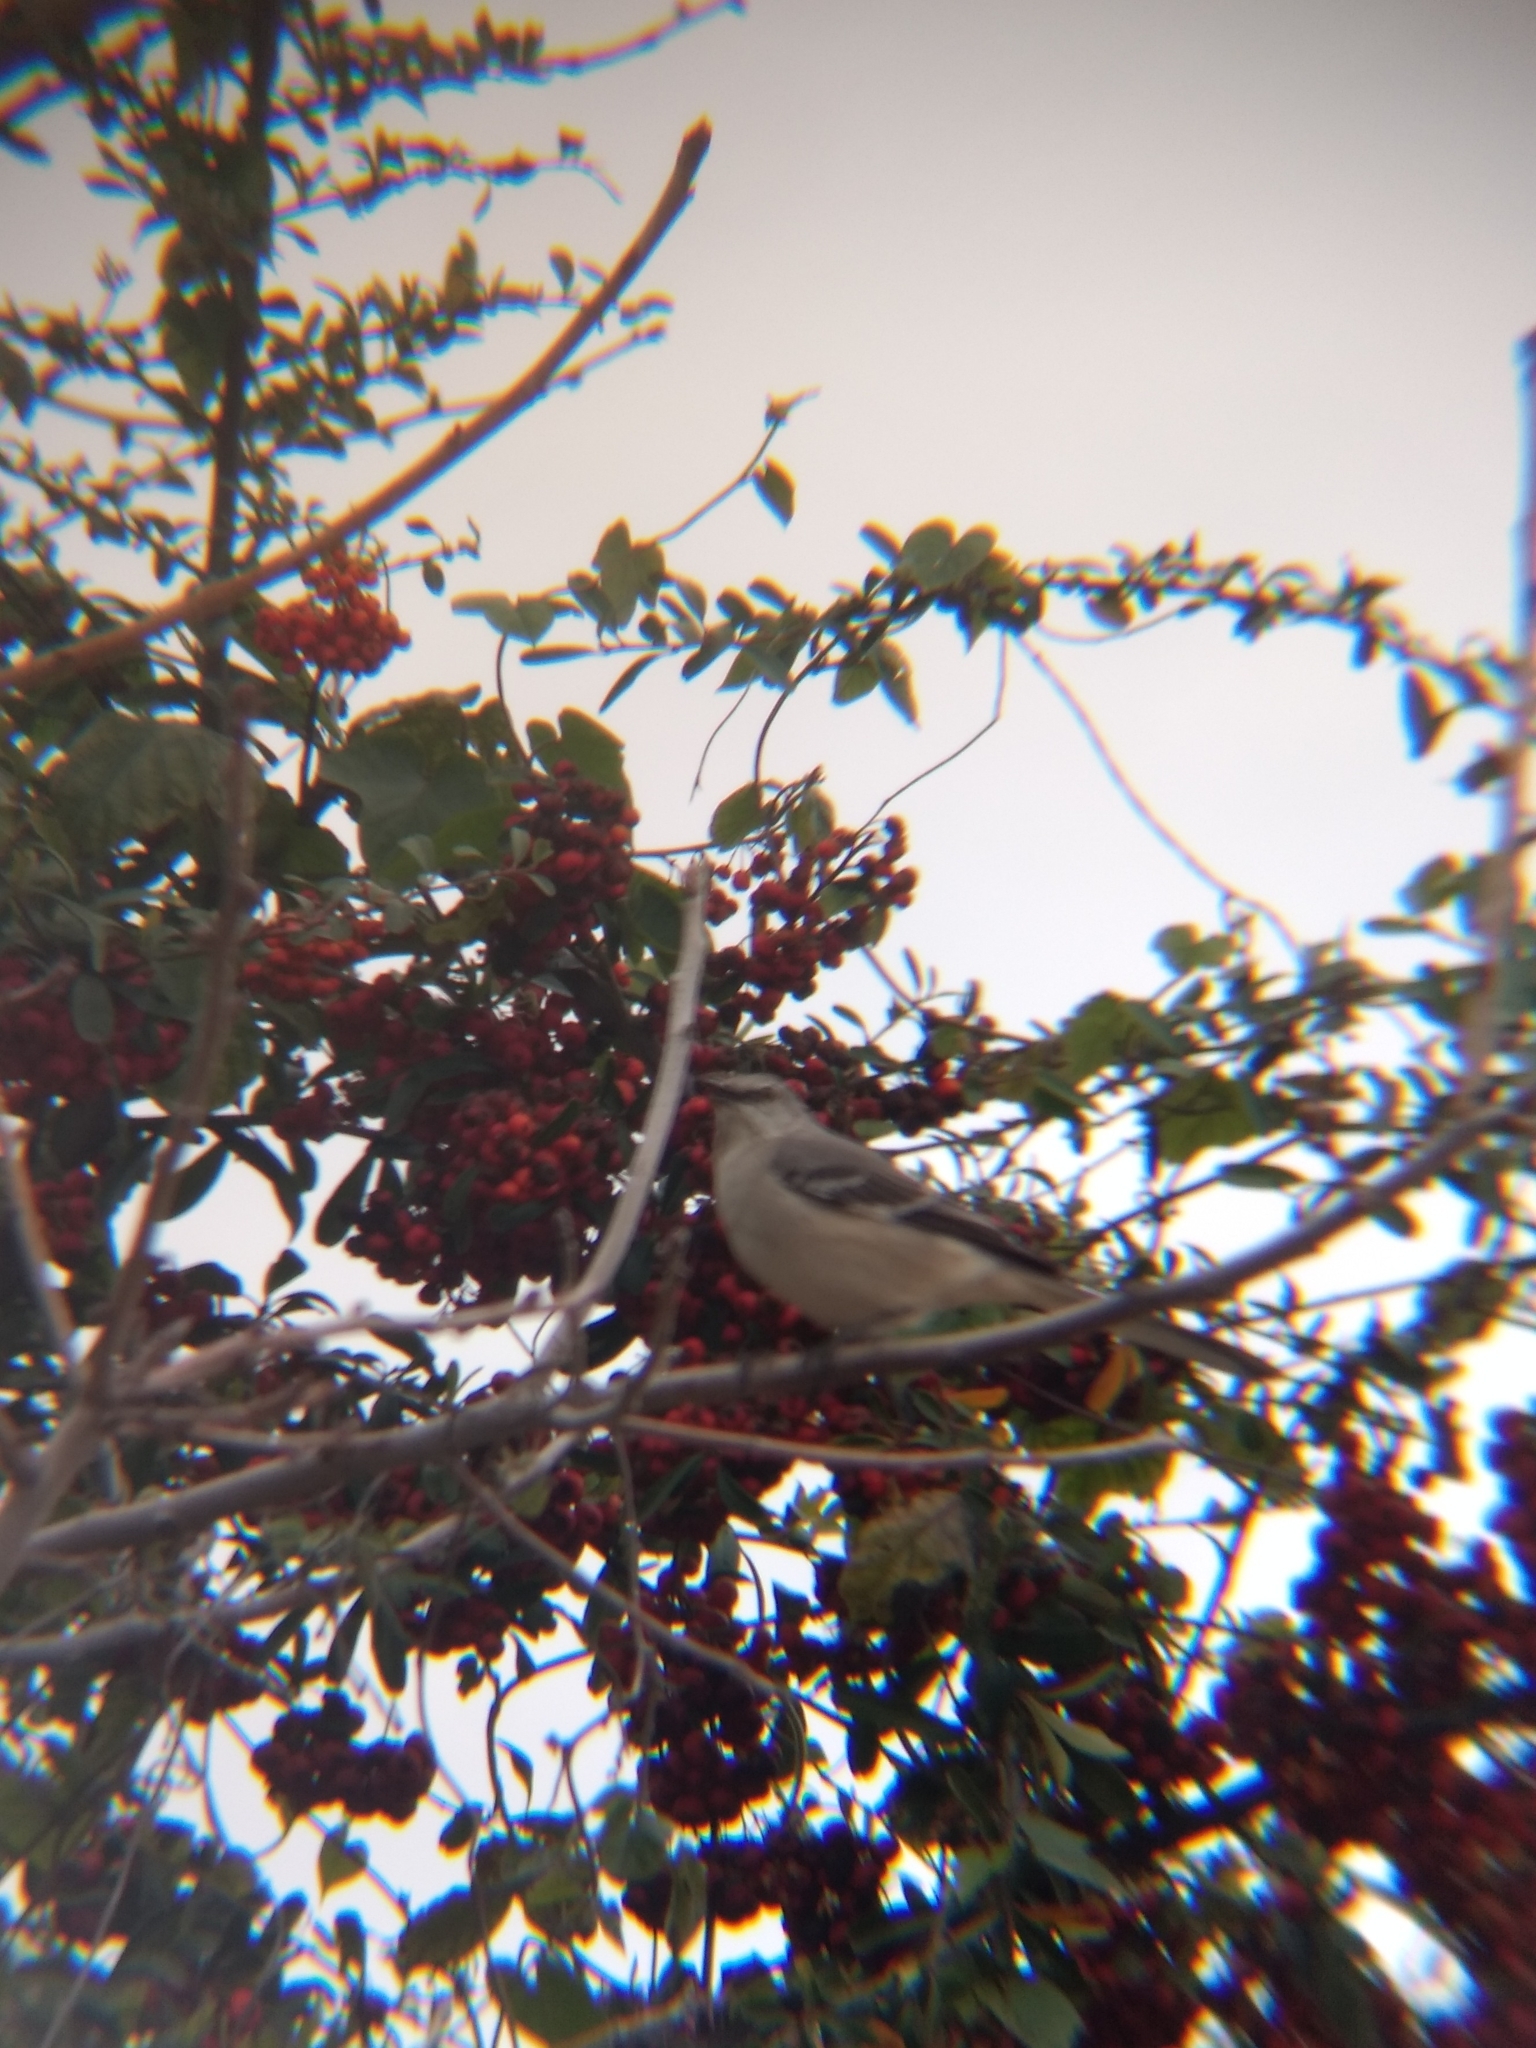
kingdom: Animalia
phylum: Chordata
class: Aves
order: Passeriformes
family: Mimidae
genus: Mimus
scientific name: Mimus polyglottos
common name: Northern mockingbird
